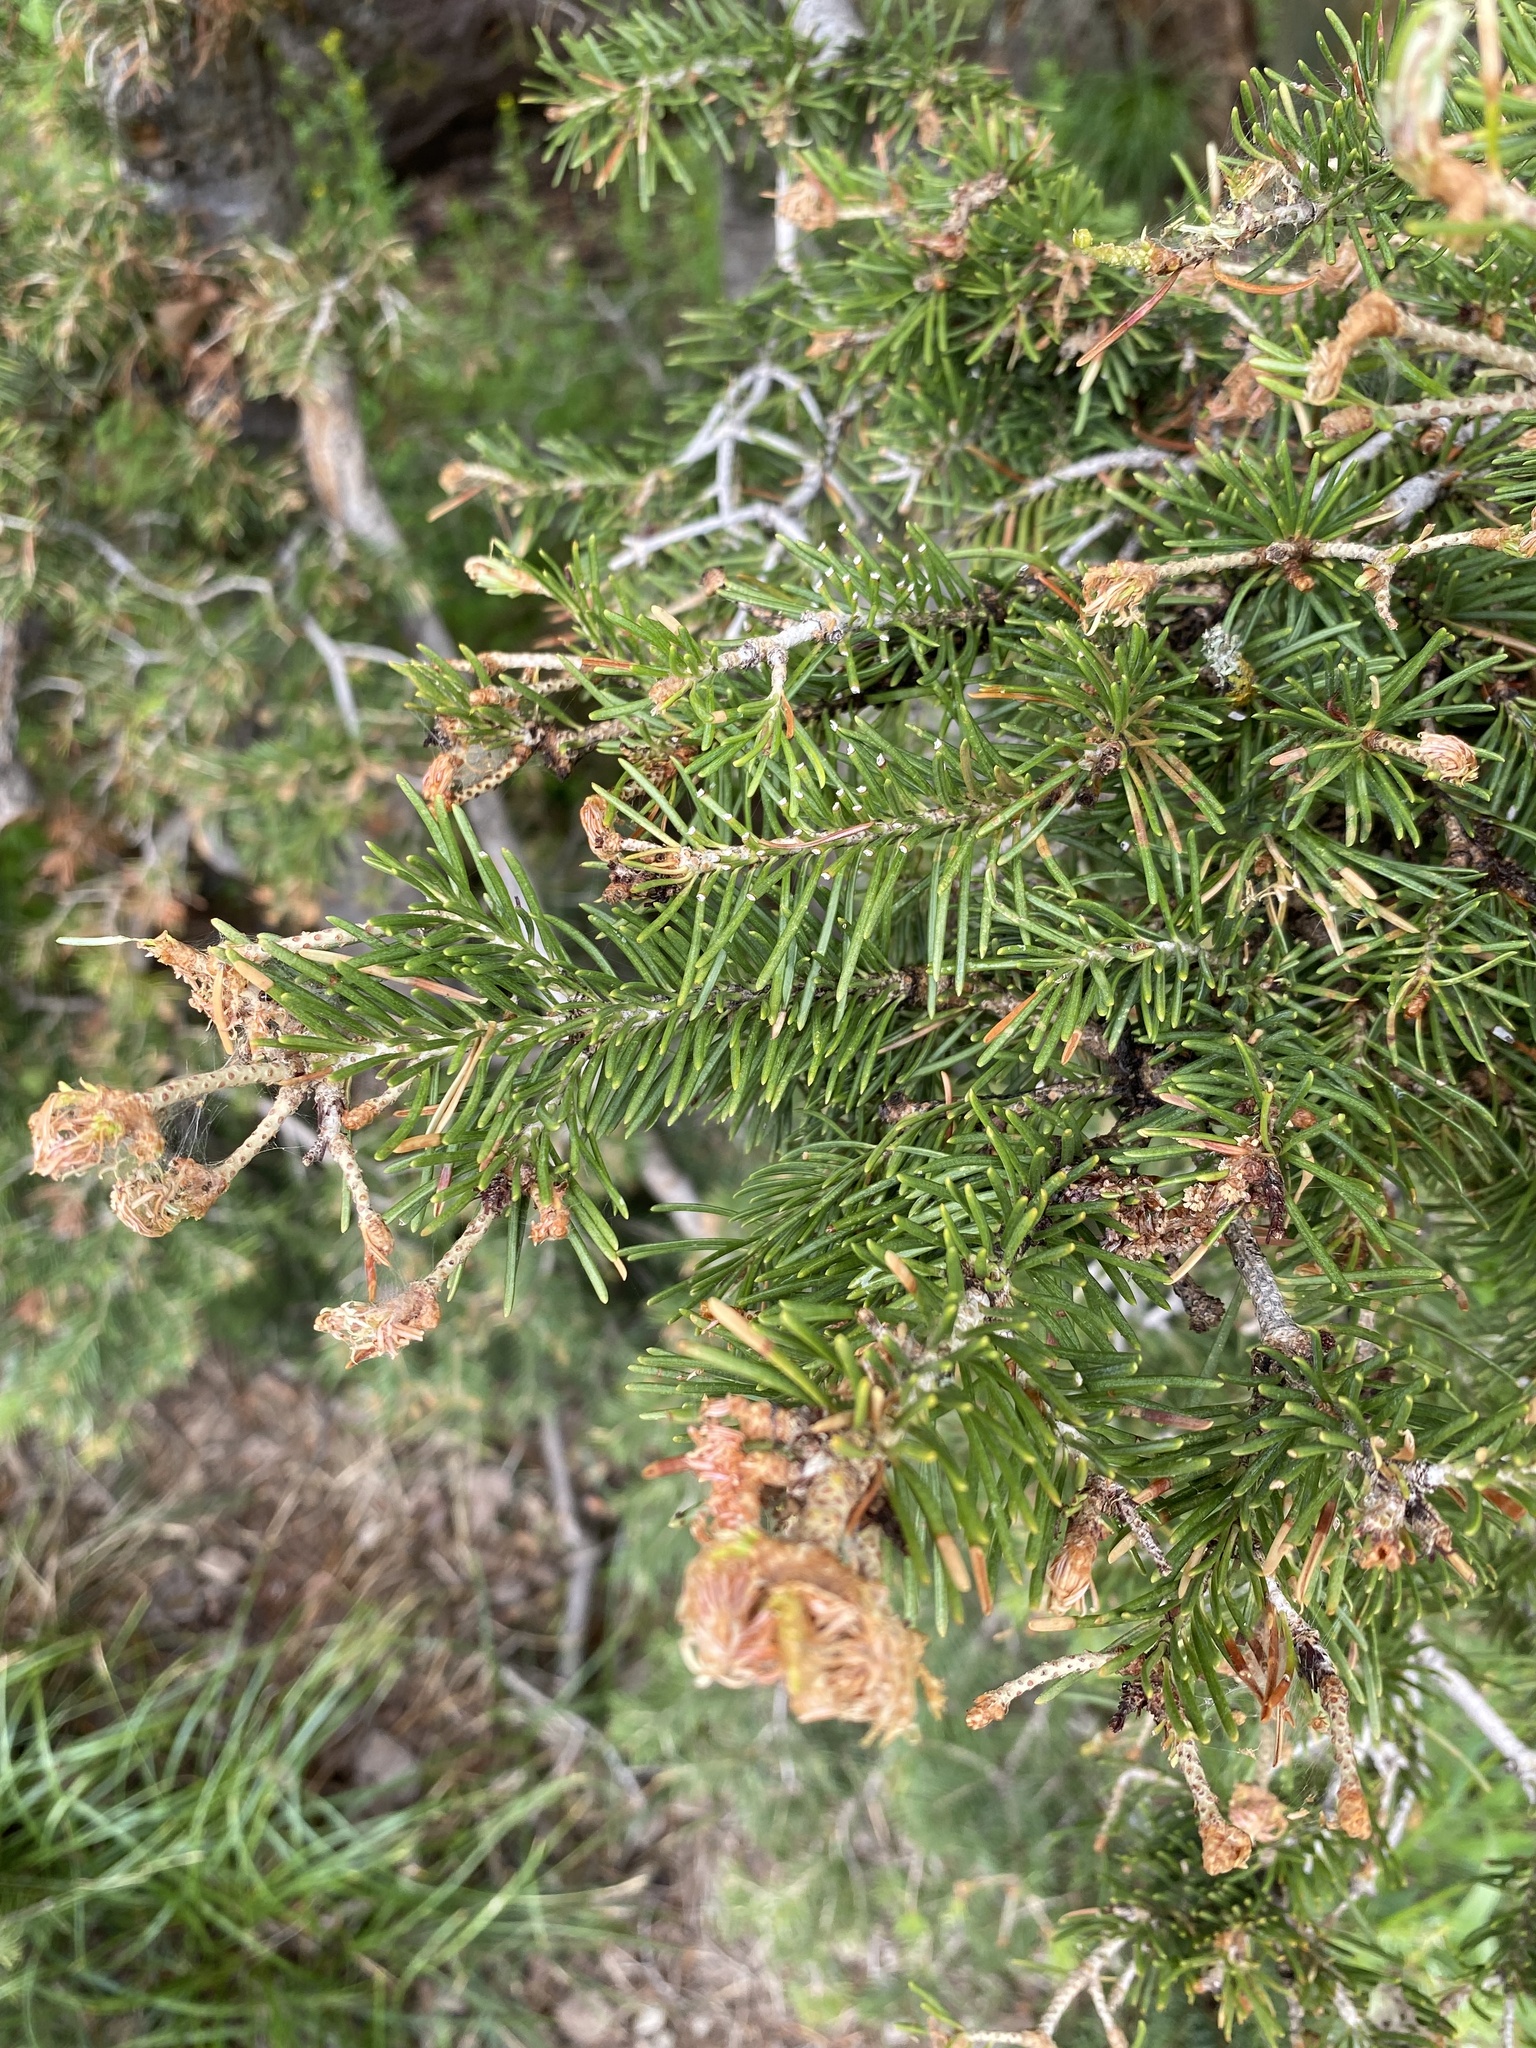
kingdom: Plantae
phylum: Tracheophyta
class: Pinopsida
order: Pinales
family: Pinaceae
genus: Abies
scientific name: Abies lasiocarpa
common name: Subalpine fir
